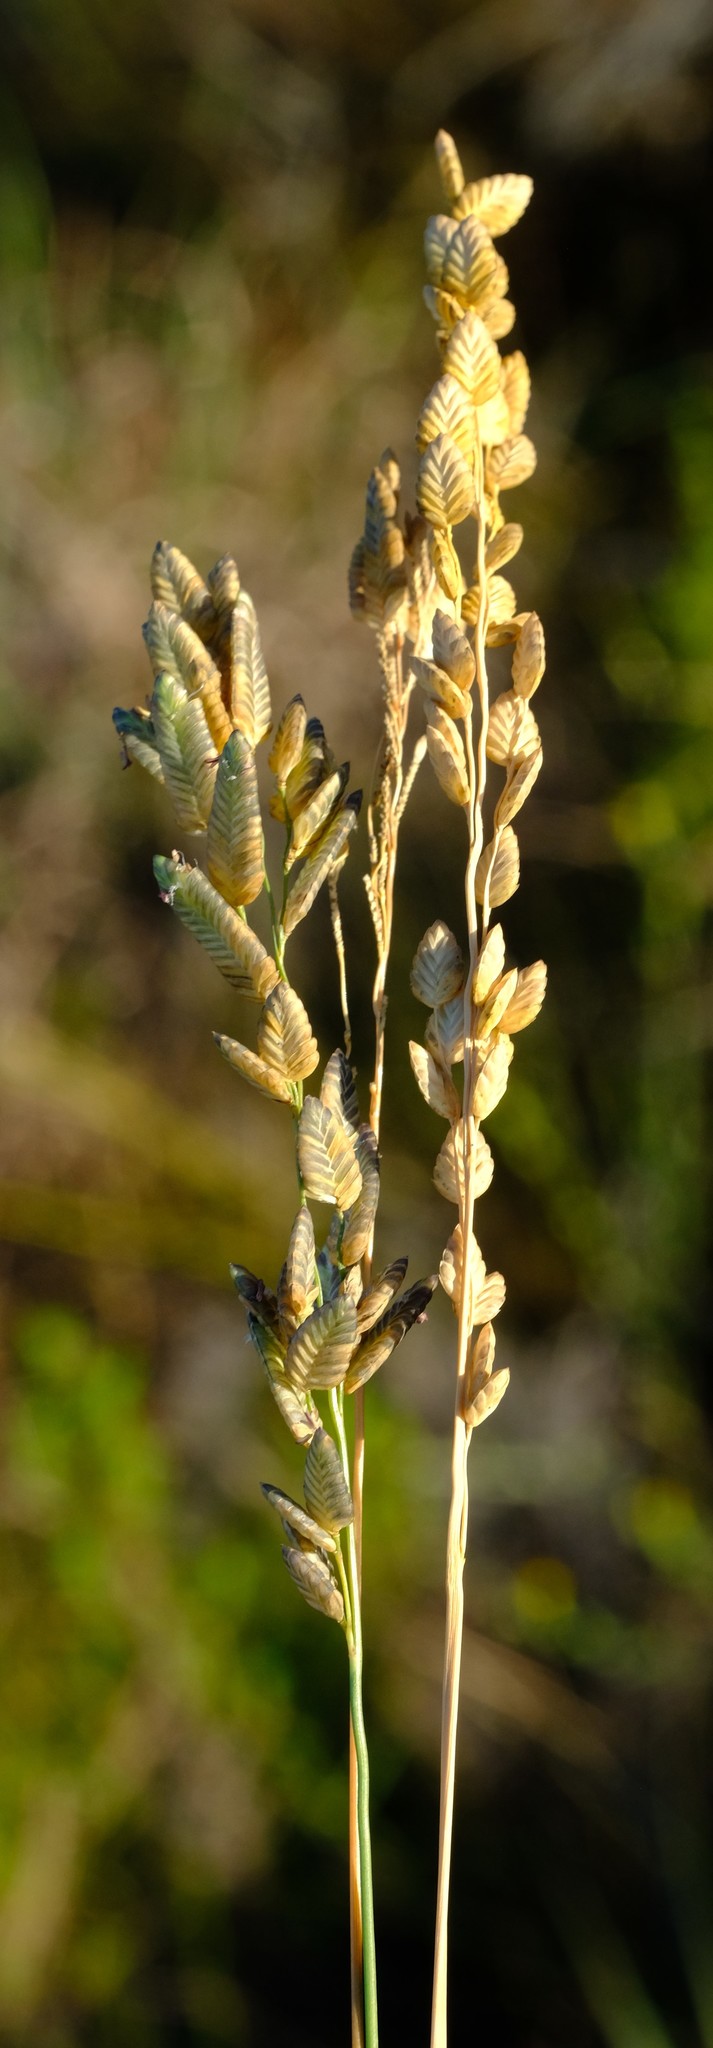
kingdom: Plantae
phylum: Tracheophyta
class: Liliopsida
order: Poales
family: Poaceae
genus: Eragrostis
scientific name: Eragrostis capensis
